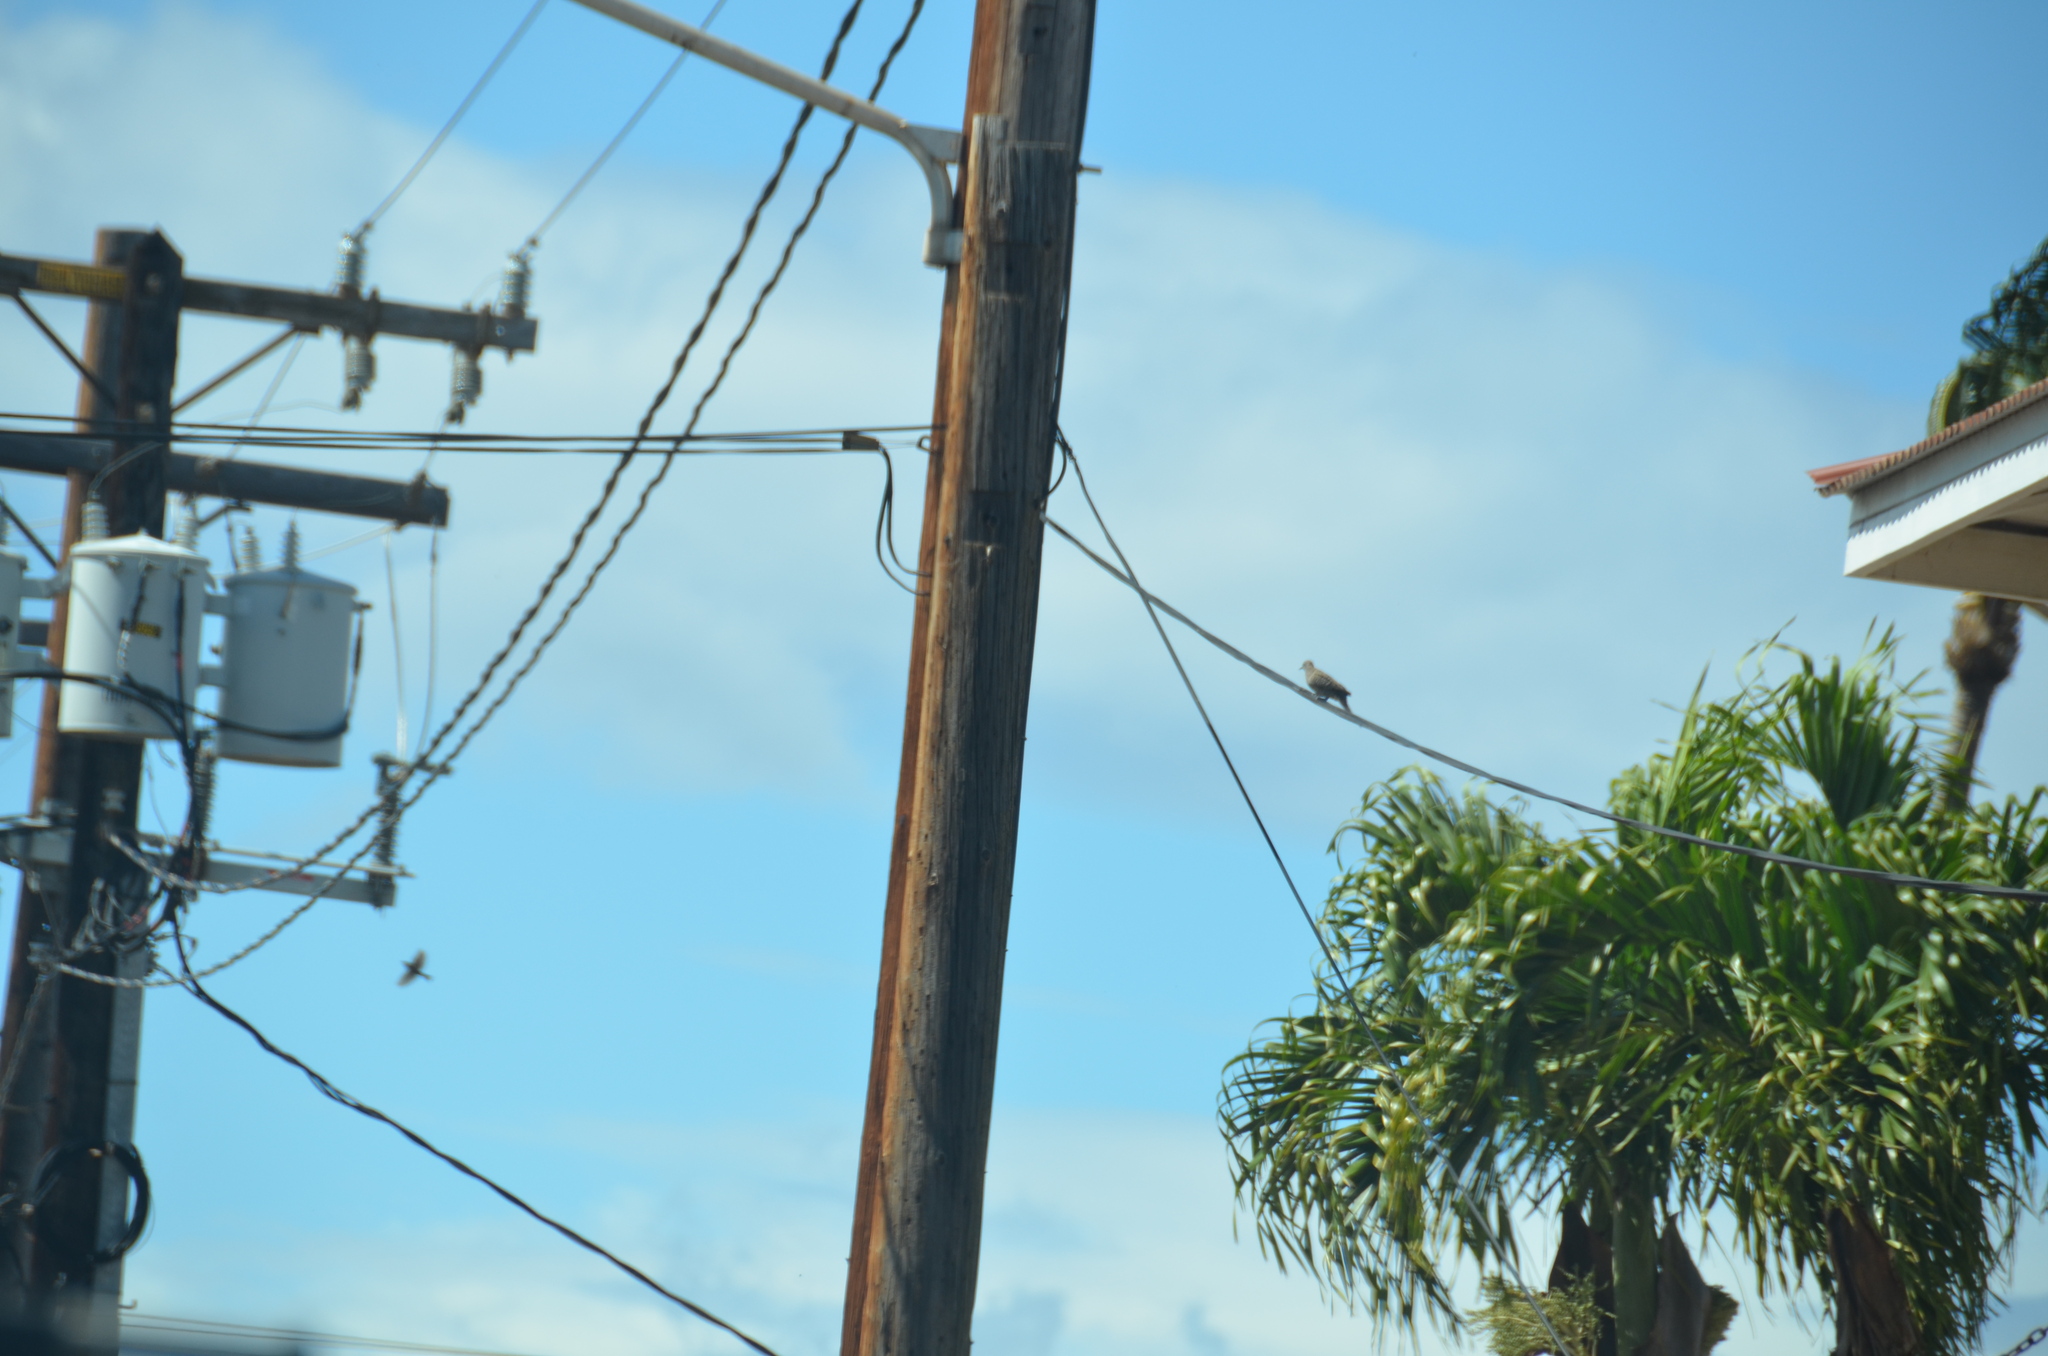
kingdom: Animalia
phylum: Chordata
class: Aves
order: Columbiformes
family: Columbidae
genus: Geopelia
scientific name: Geopelia striata
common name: Zebra dove
